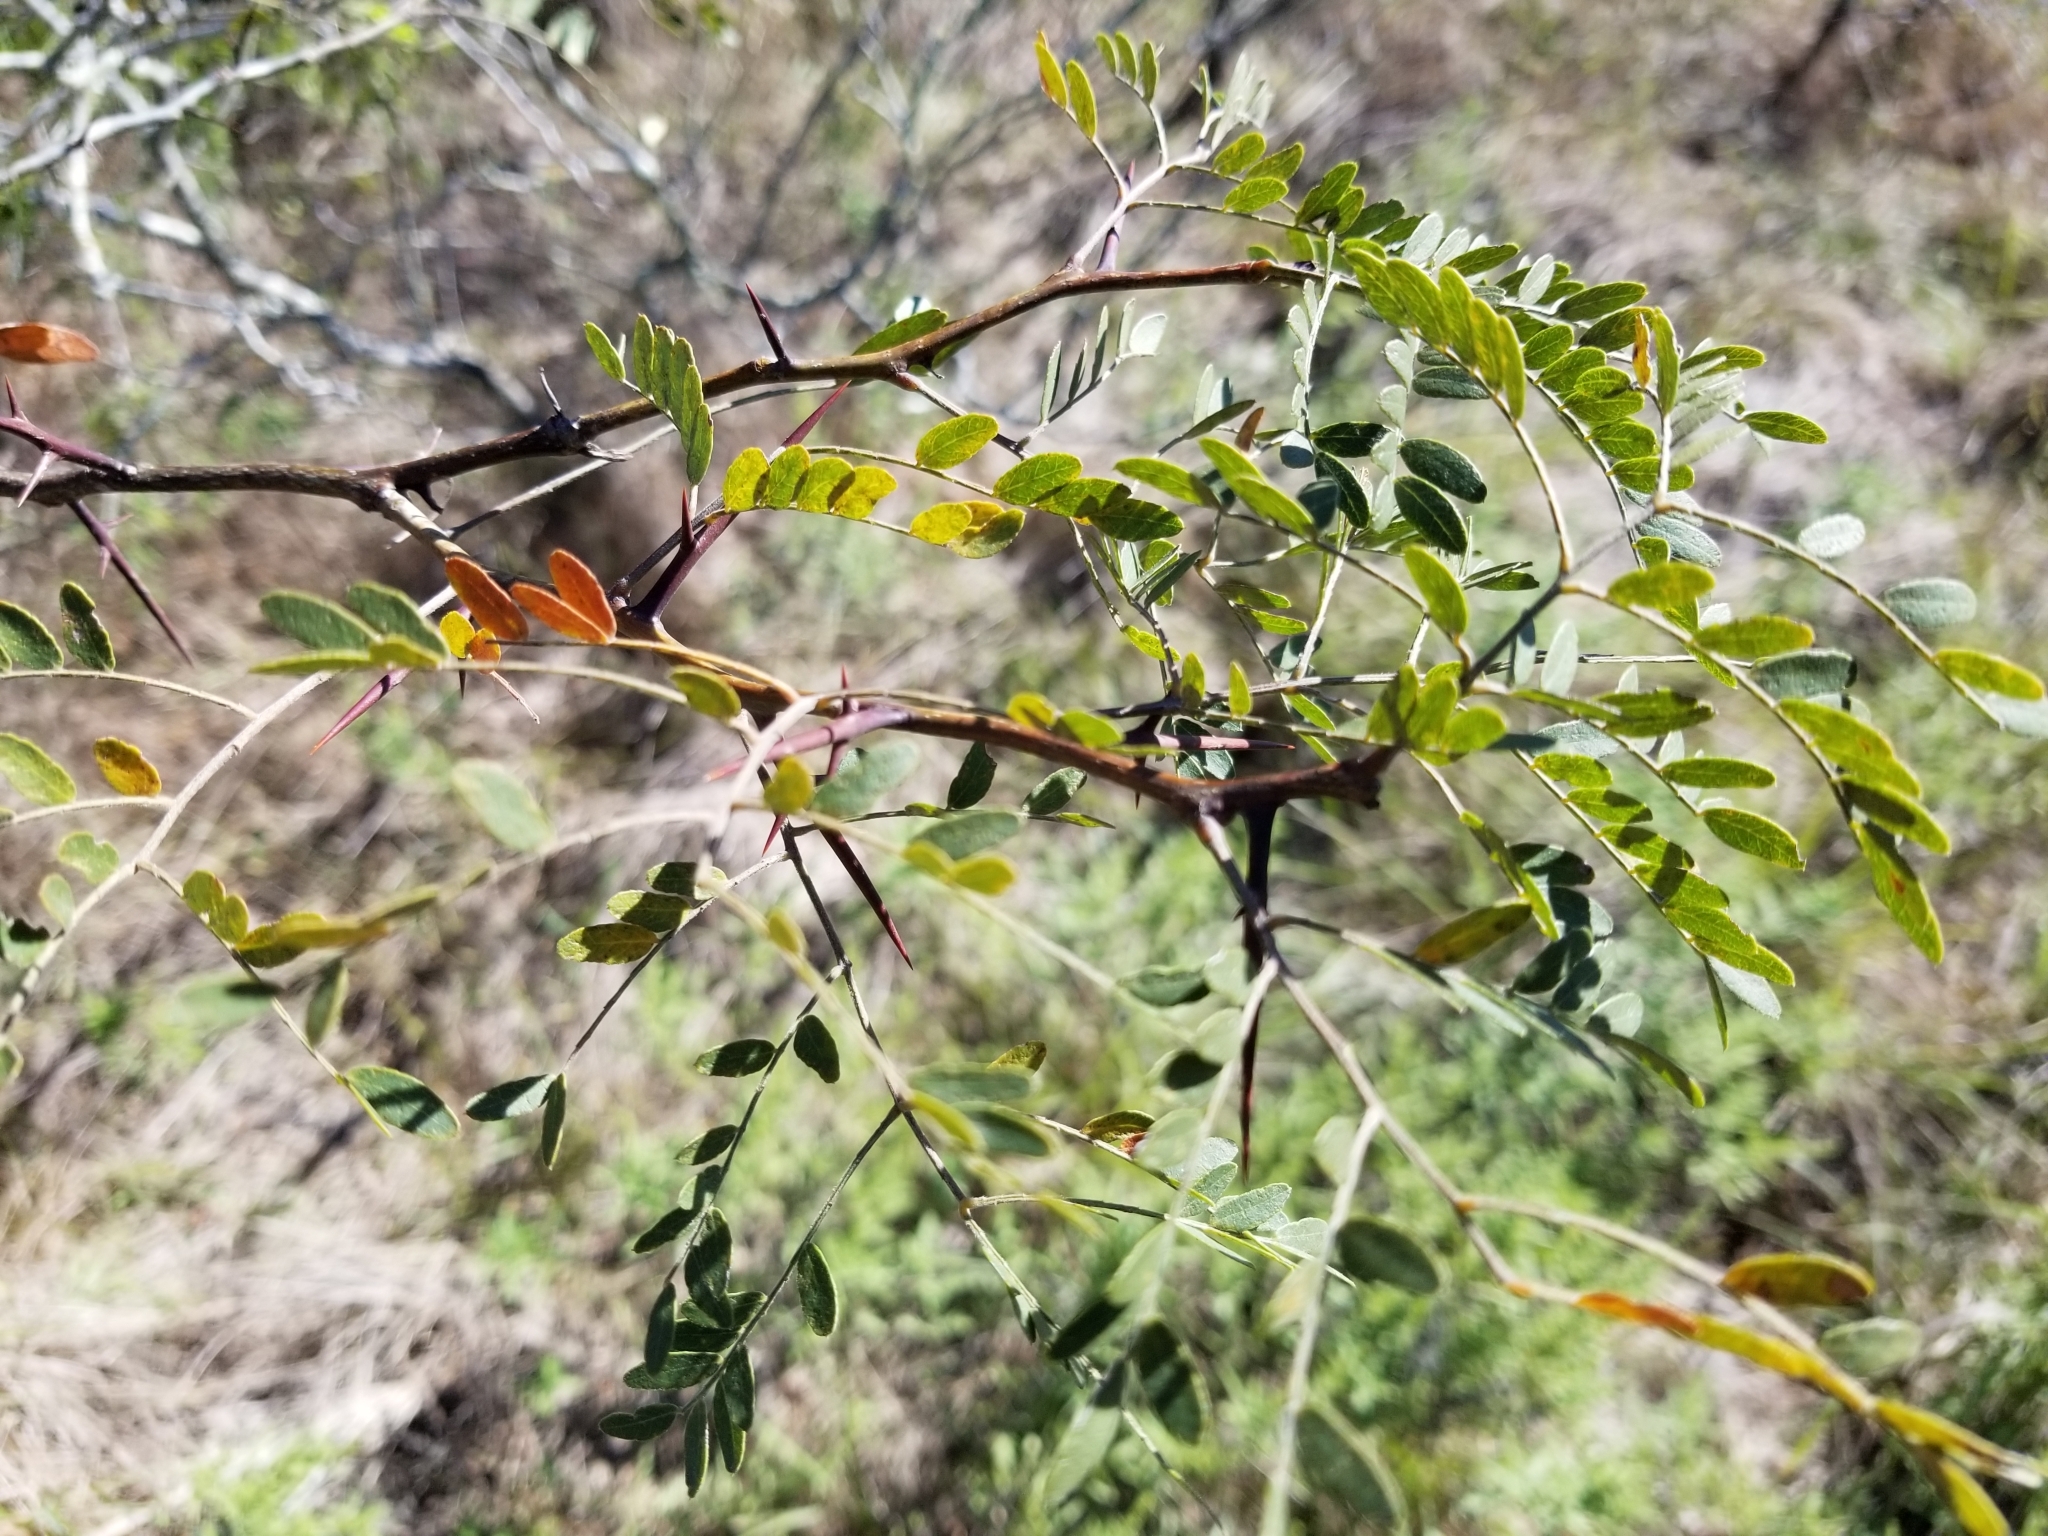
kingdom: Plantae
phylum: Tracheophyta
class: Magnoliopsida
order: Fabales
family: Fabaceae
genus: Gleditsia
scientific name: Gleditsia triacanthos
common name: Common honeylocust
